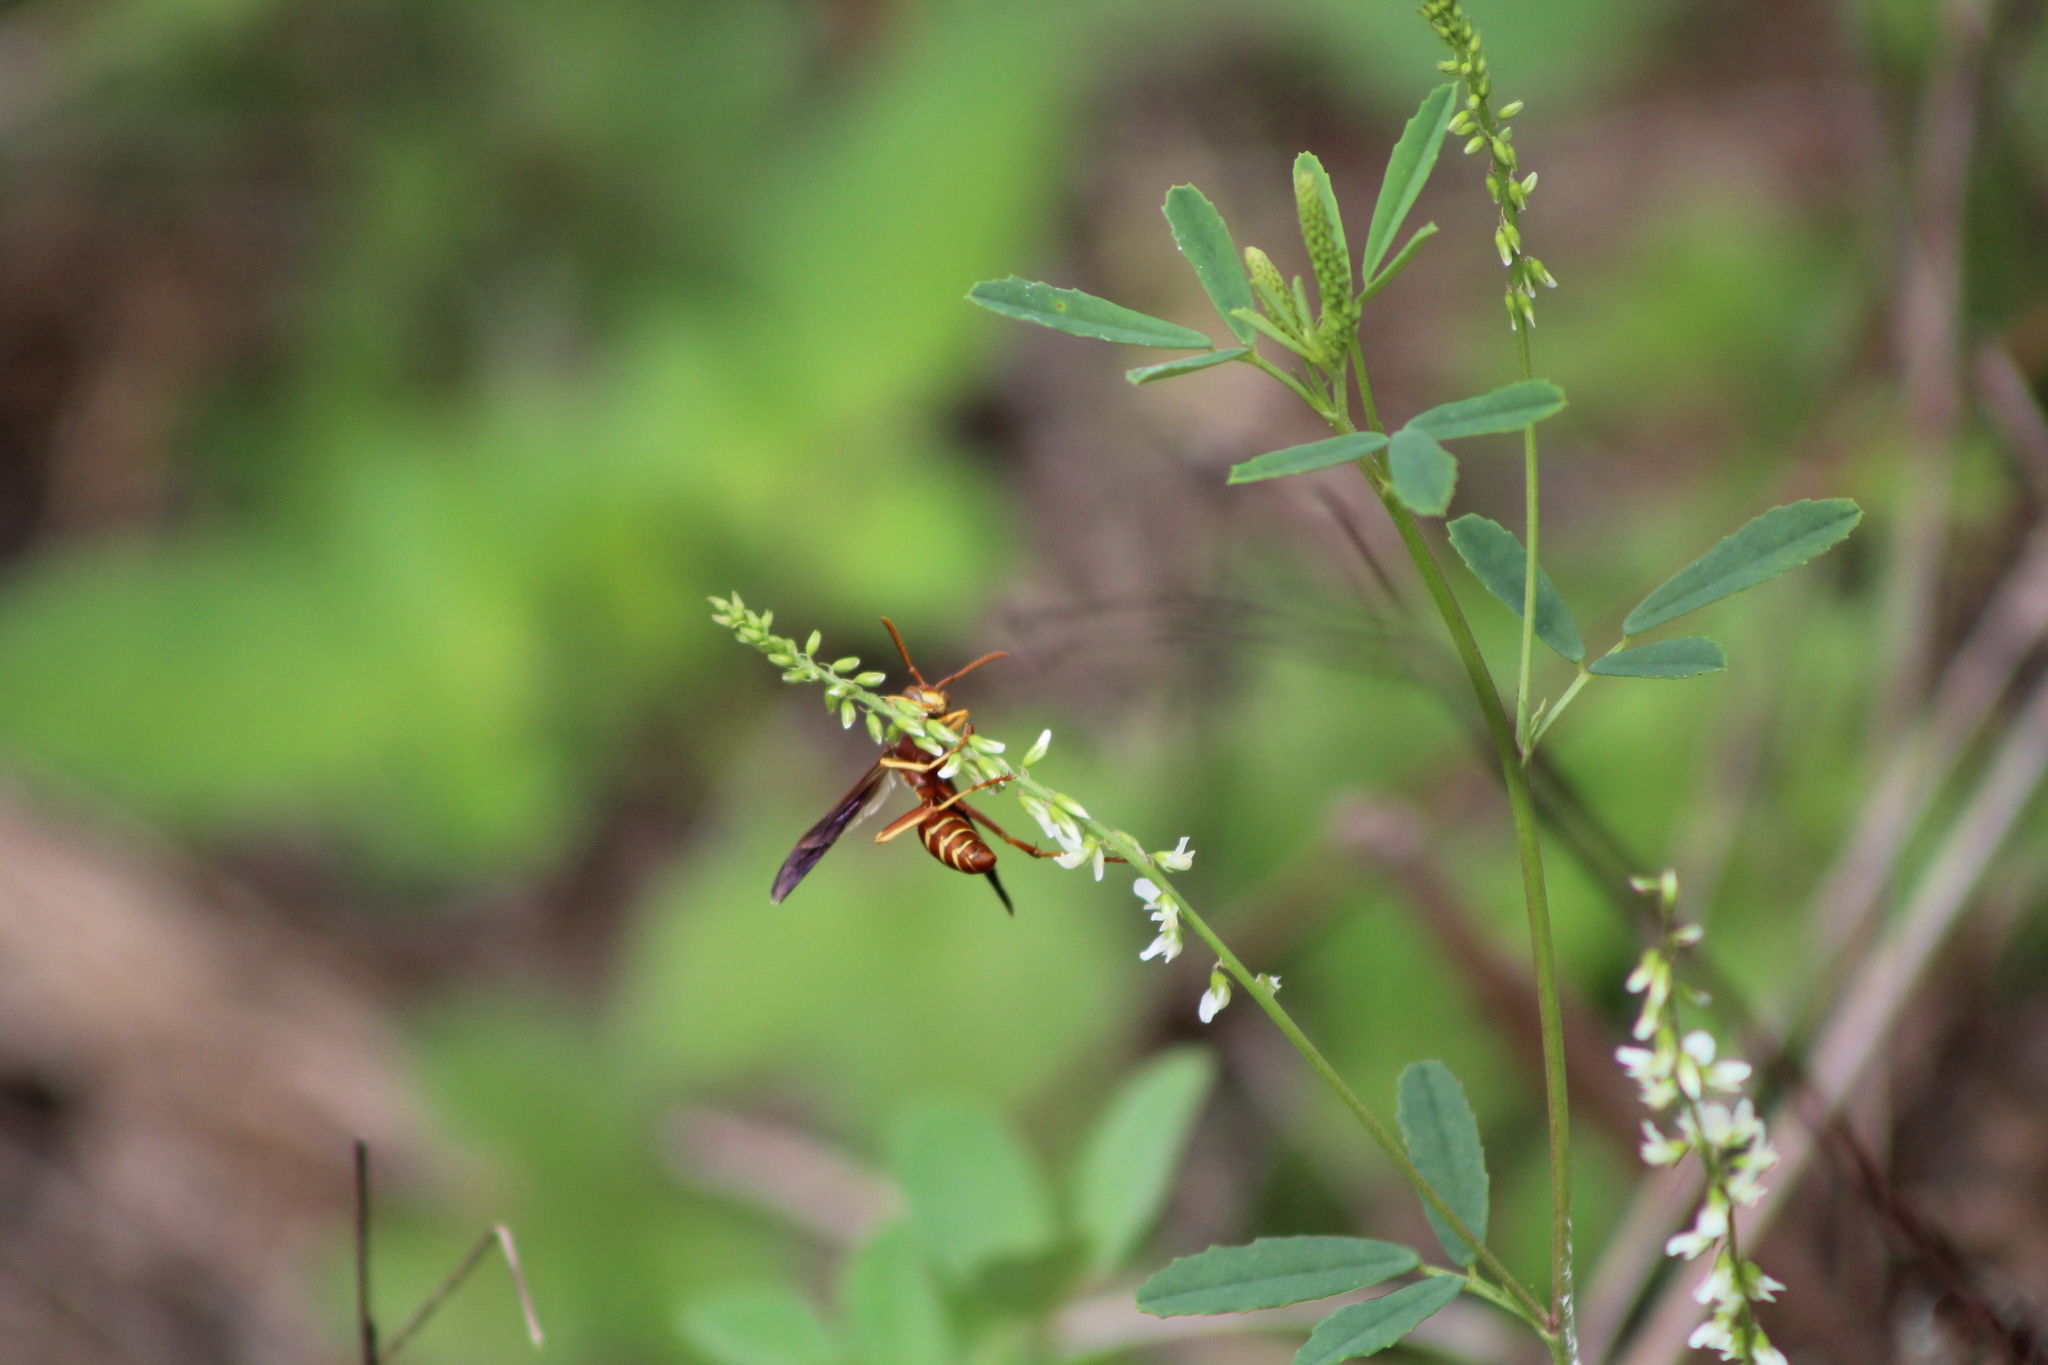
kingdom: Animalia
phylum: Arthropoda
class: Insecta
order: Hymenoptera
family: Eumenidae
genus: Polistes
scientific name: Polistes bellicosus
